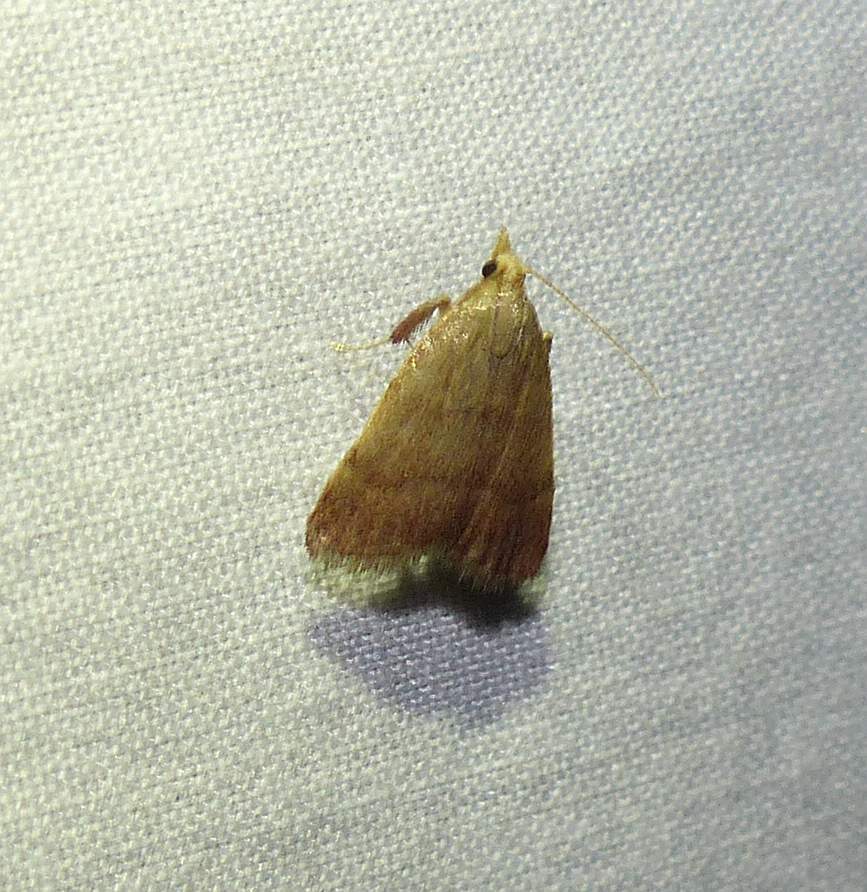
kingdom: Animalia
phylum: Arthropoda
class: Insecta
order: Lepidoptera
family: Pyralidae
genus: Condylolomia
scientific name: Condylolomia participialis
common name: Drab condylolomia moth
